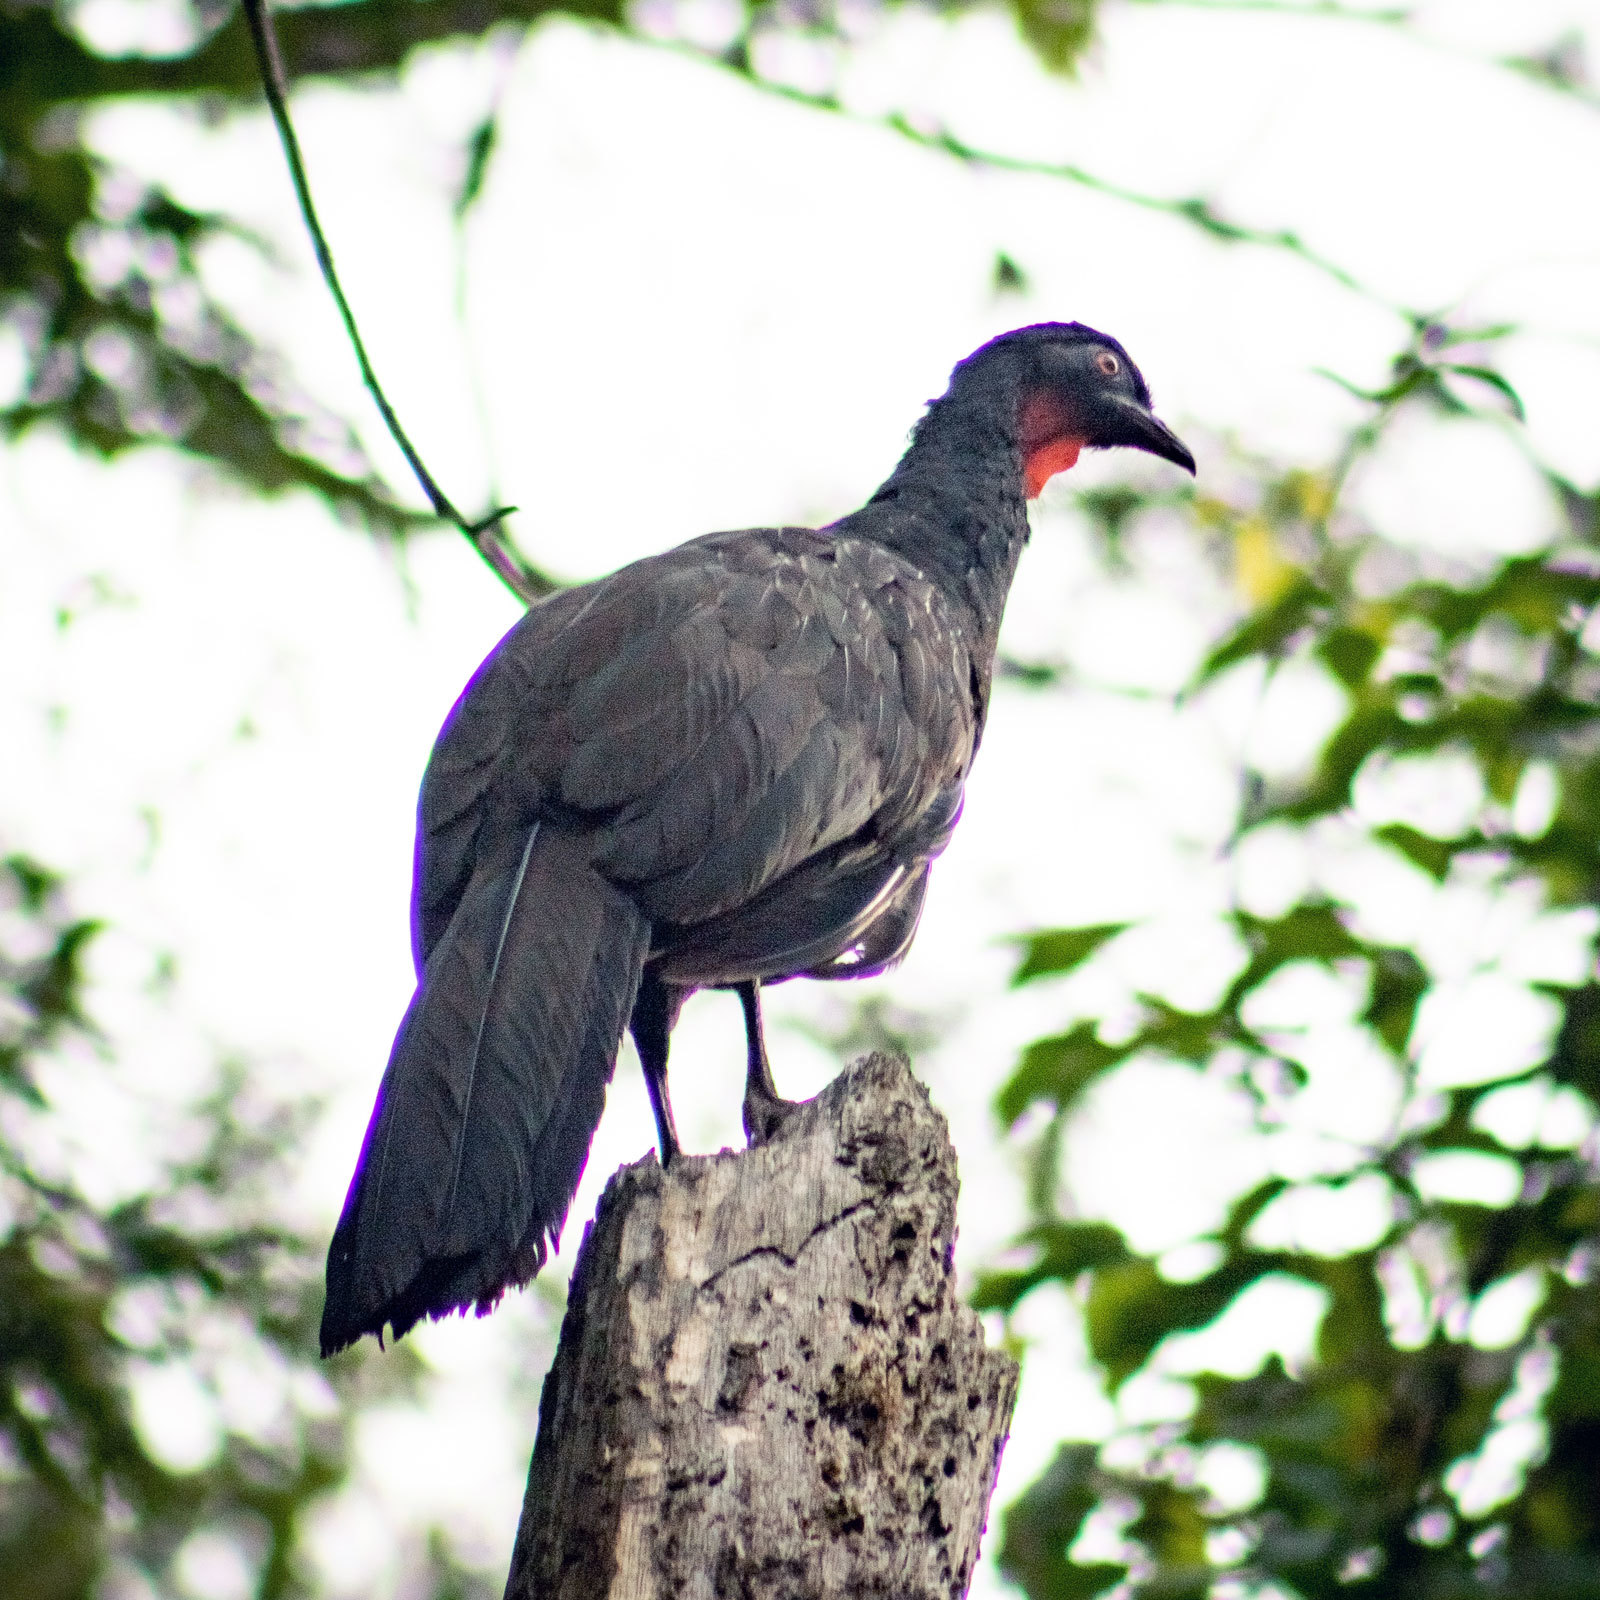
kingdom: Animalia
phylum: Chordata
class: Aves
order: Galliformes
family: Cracidae
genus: Penelope
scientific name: Penelope obscura
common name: Dusky-legged guan
